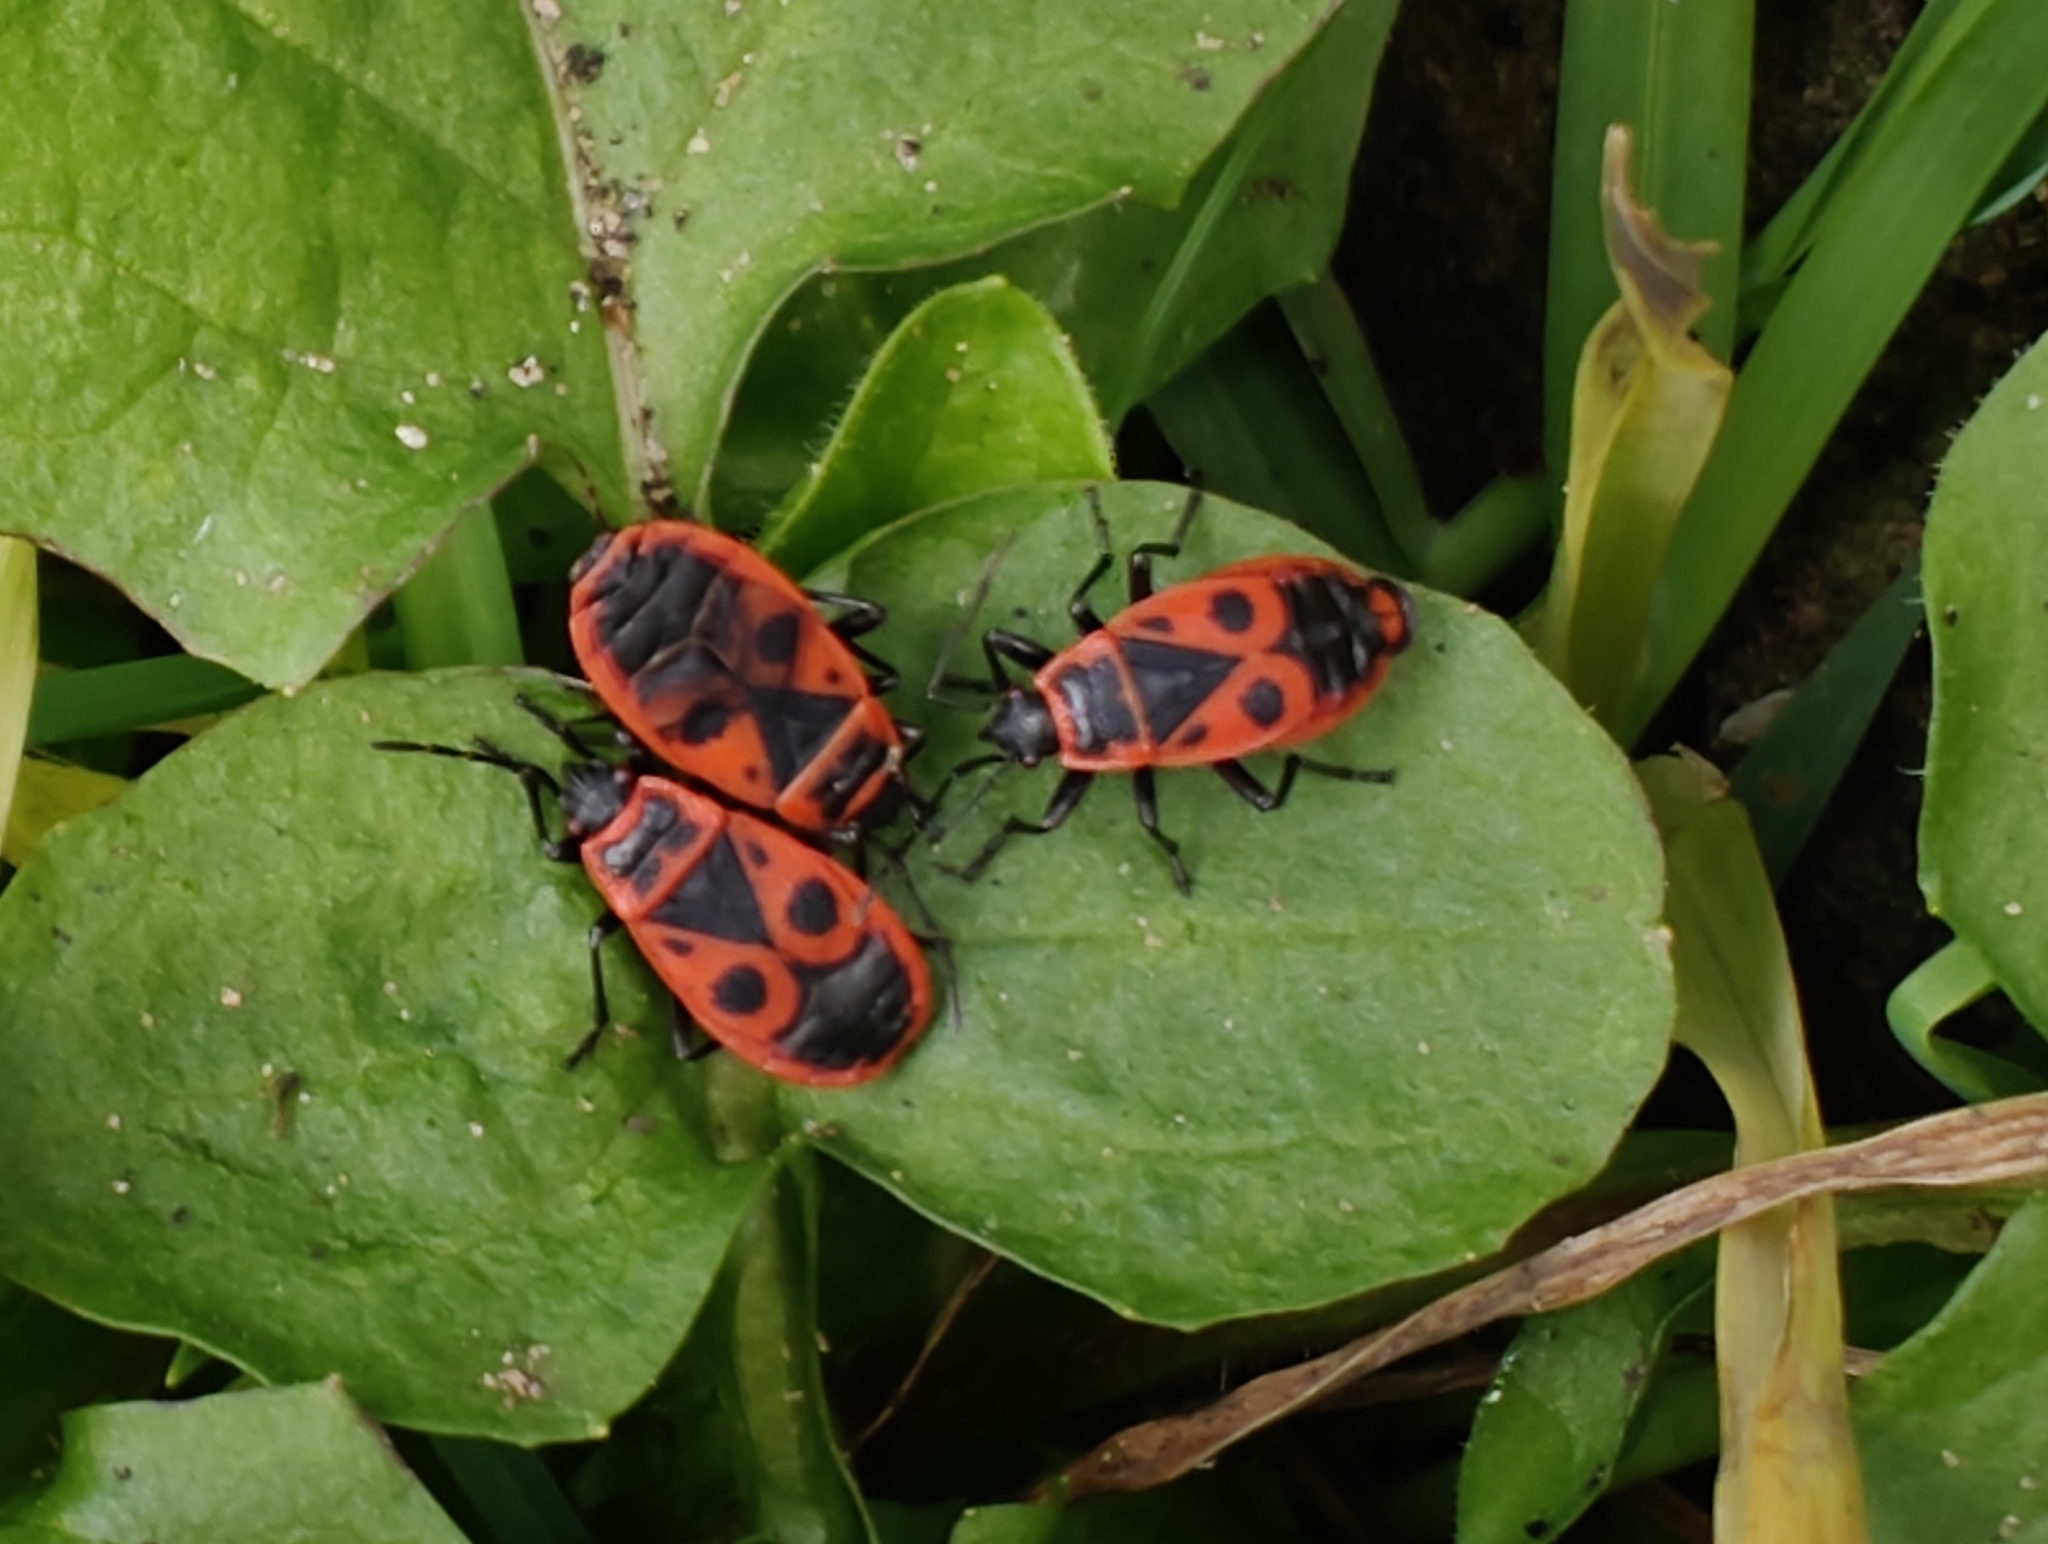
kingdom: Animalia
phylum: Arthropoda
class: Insecta
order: Hemiptera
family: Pyrrhocoridae
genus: Pyrrhocoris
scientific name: Pyrrhocoris apterus
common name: Firebug
